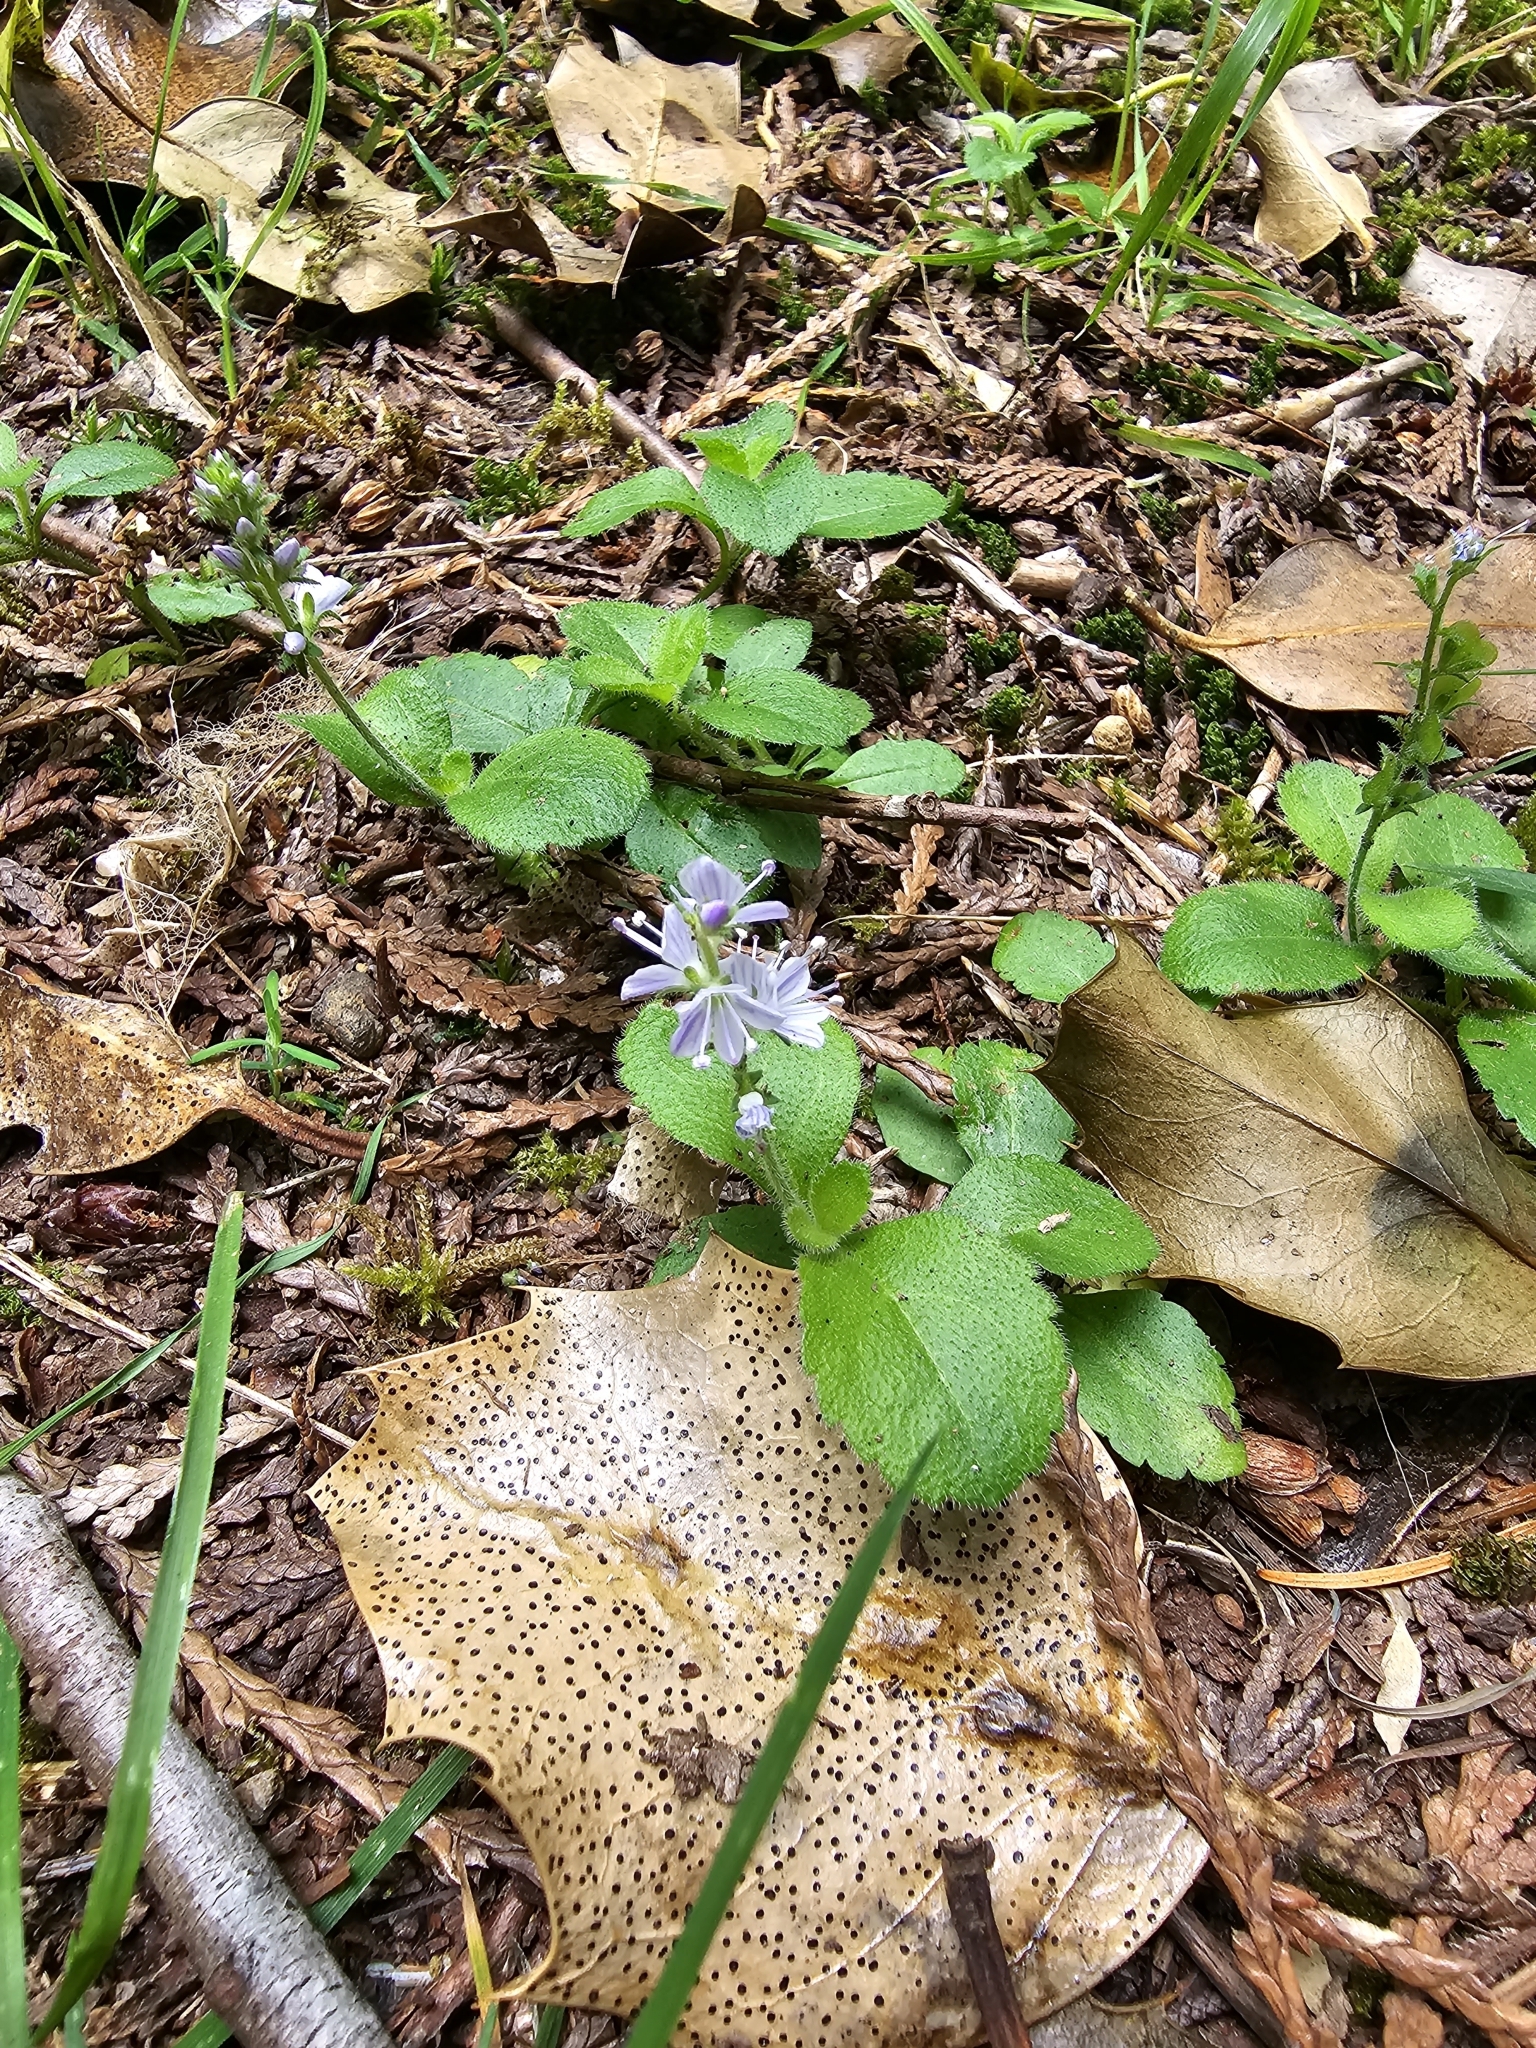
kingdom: Plantae
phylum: Tracheophyta
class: Magnoliopsida
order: Lamiales
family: Plantaginaceae
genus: Veronica
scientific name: Veronica officinalis
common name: Common speedwell
